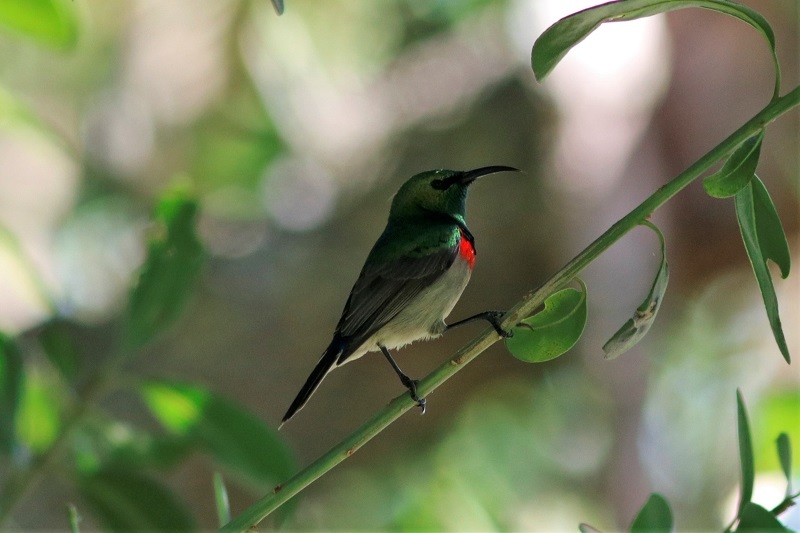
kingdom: Animalia
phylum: Chordata
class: Aves
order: Passeriformes
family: Nectariniidae
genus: Cinnyris
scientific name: Cinnyris chalybeus
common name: Southern double-collared sunbird
